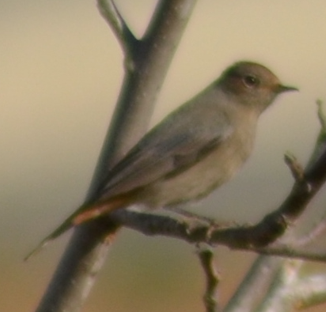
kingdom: Animalia
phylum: Chordata
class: Aves
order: Passeriformes
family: Muscicapidae
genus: Phoenicurus
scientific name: Phoenicurus ochruros
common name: Black redstart
